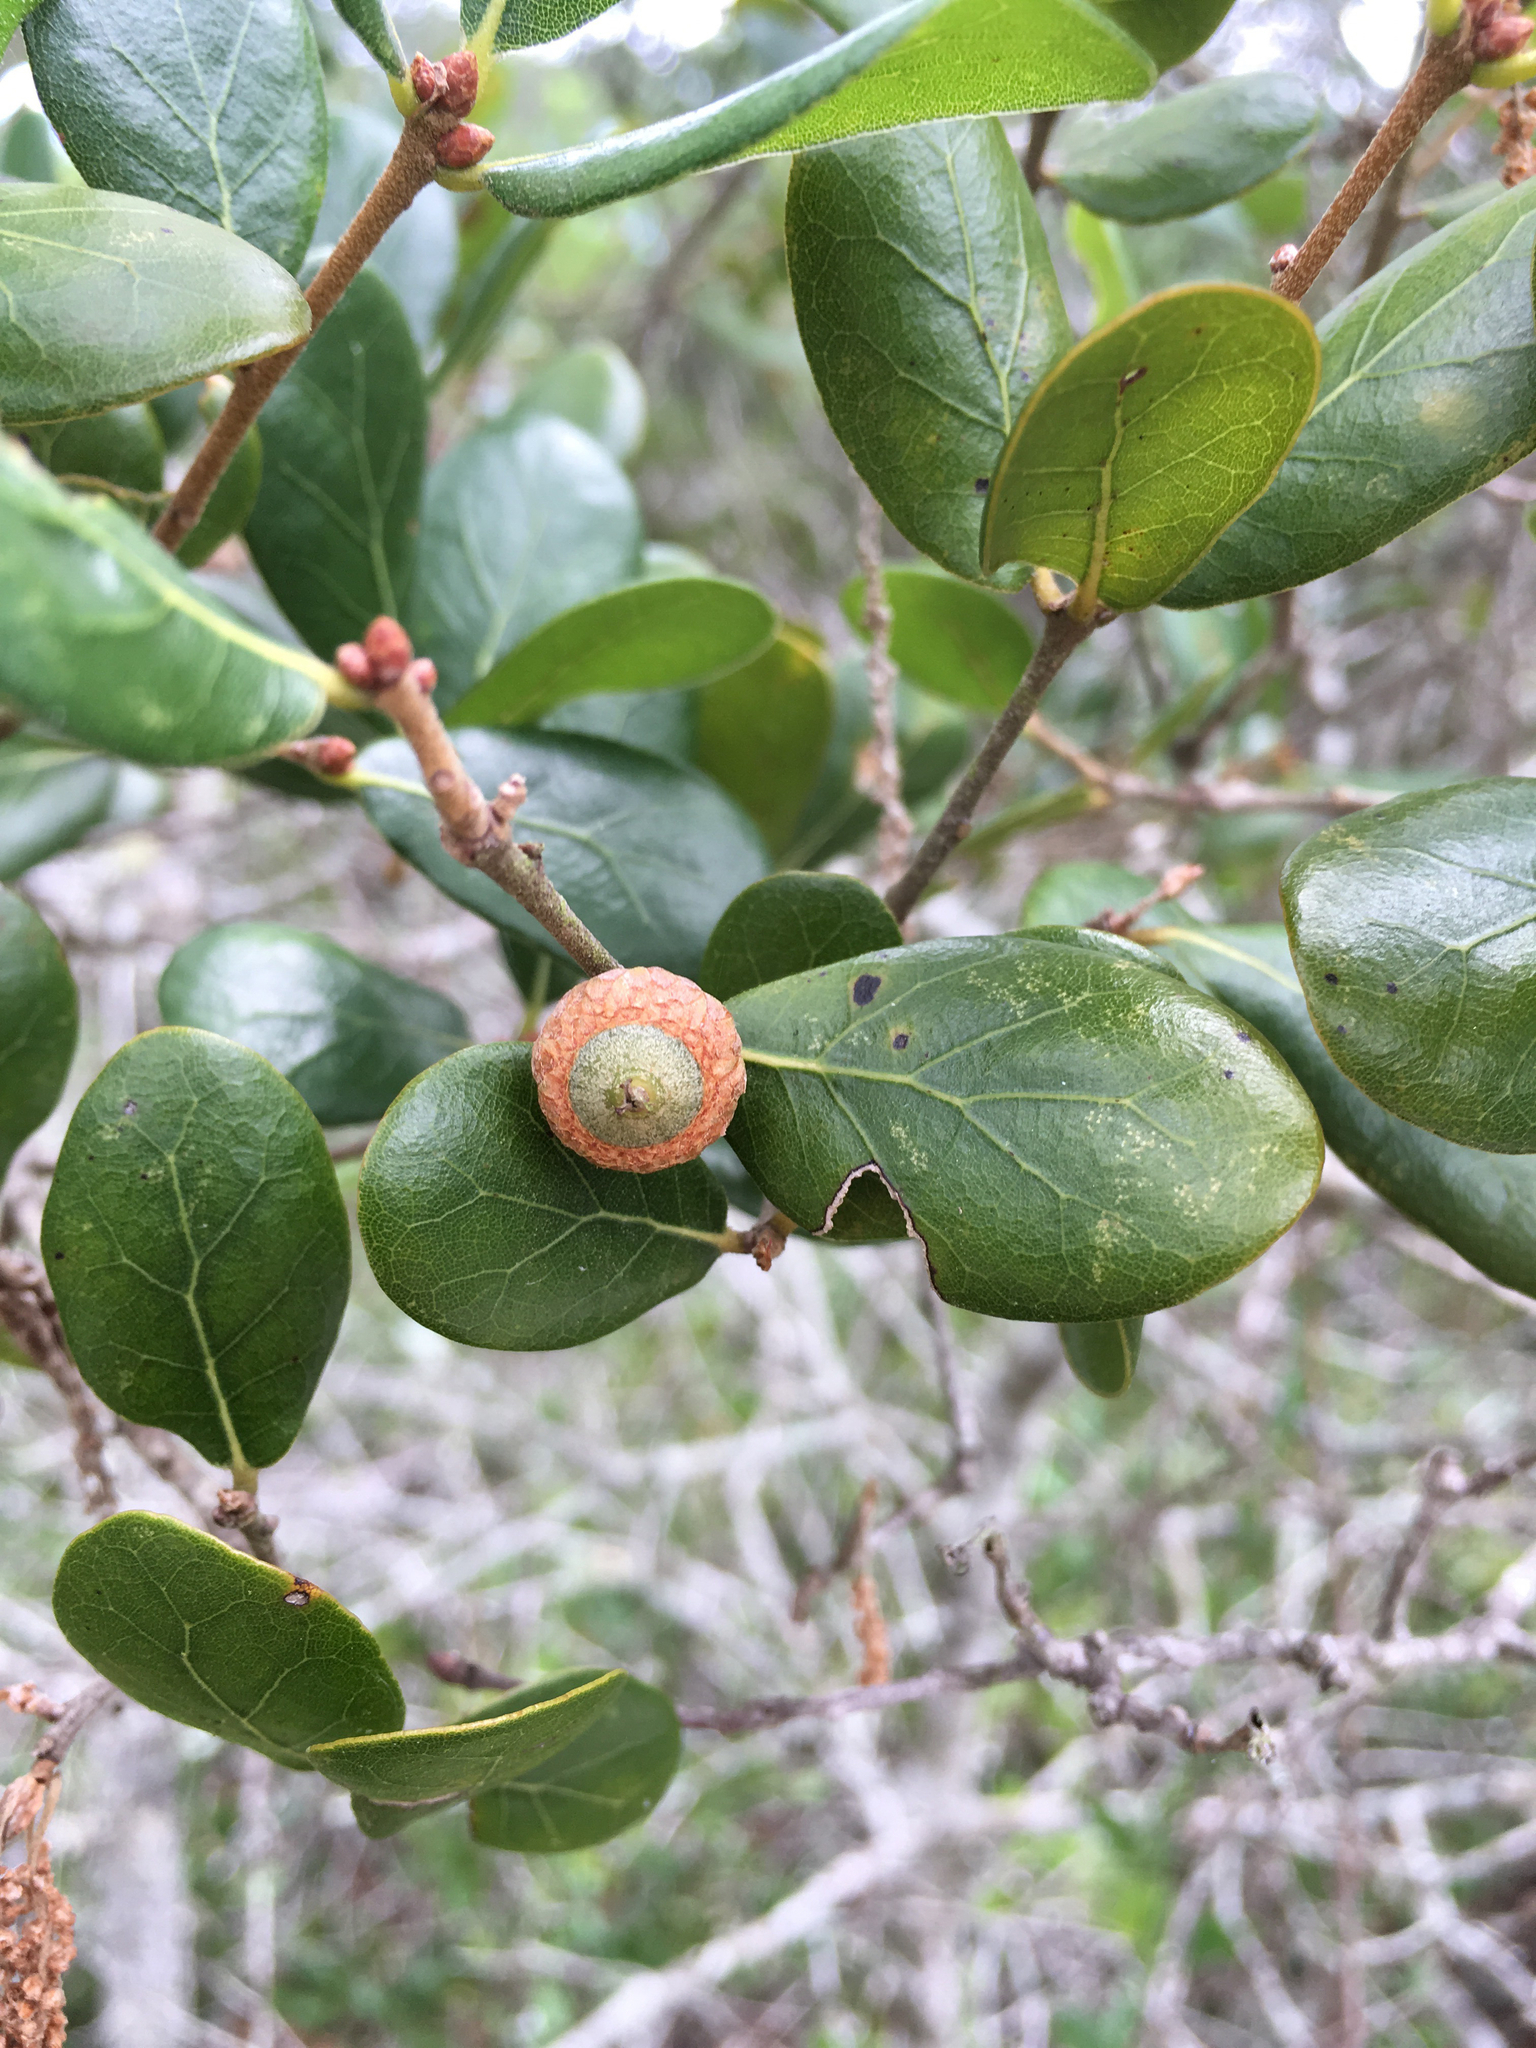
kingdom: Plantae
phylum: Tracheophyta
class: Magnoliopsida
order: Fagales
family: Fagaceae
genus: Quercus
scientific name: Quercus myrtifolia
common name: Myrtle oak
